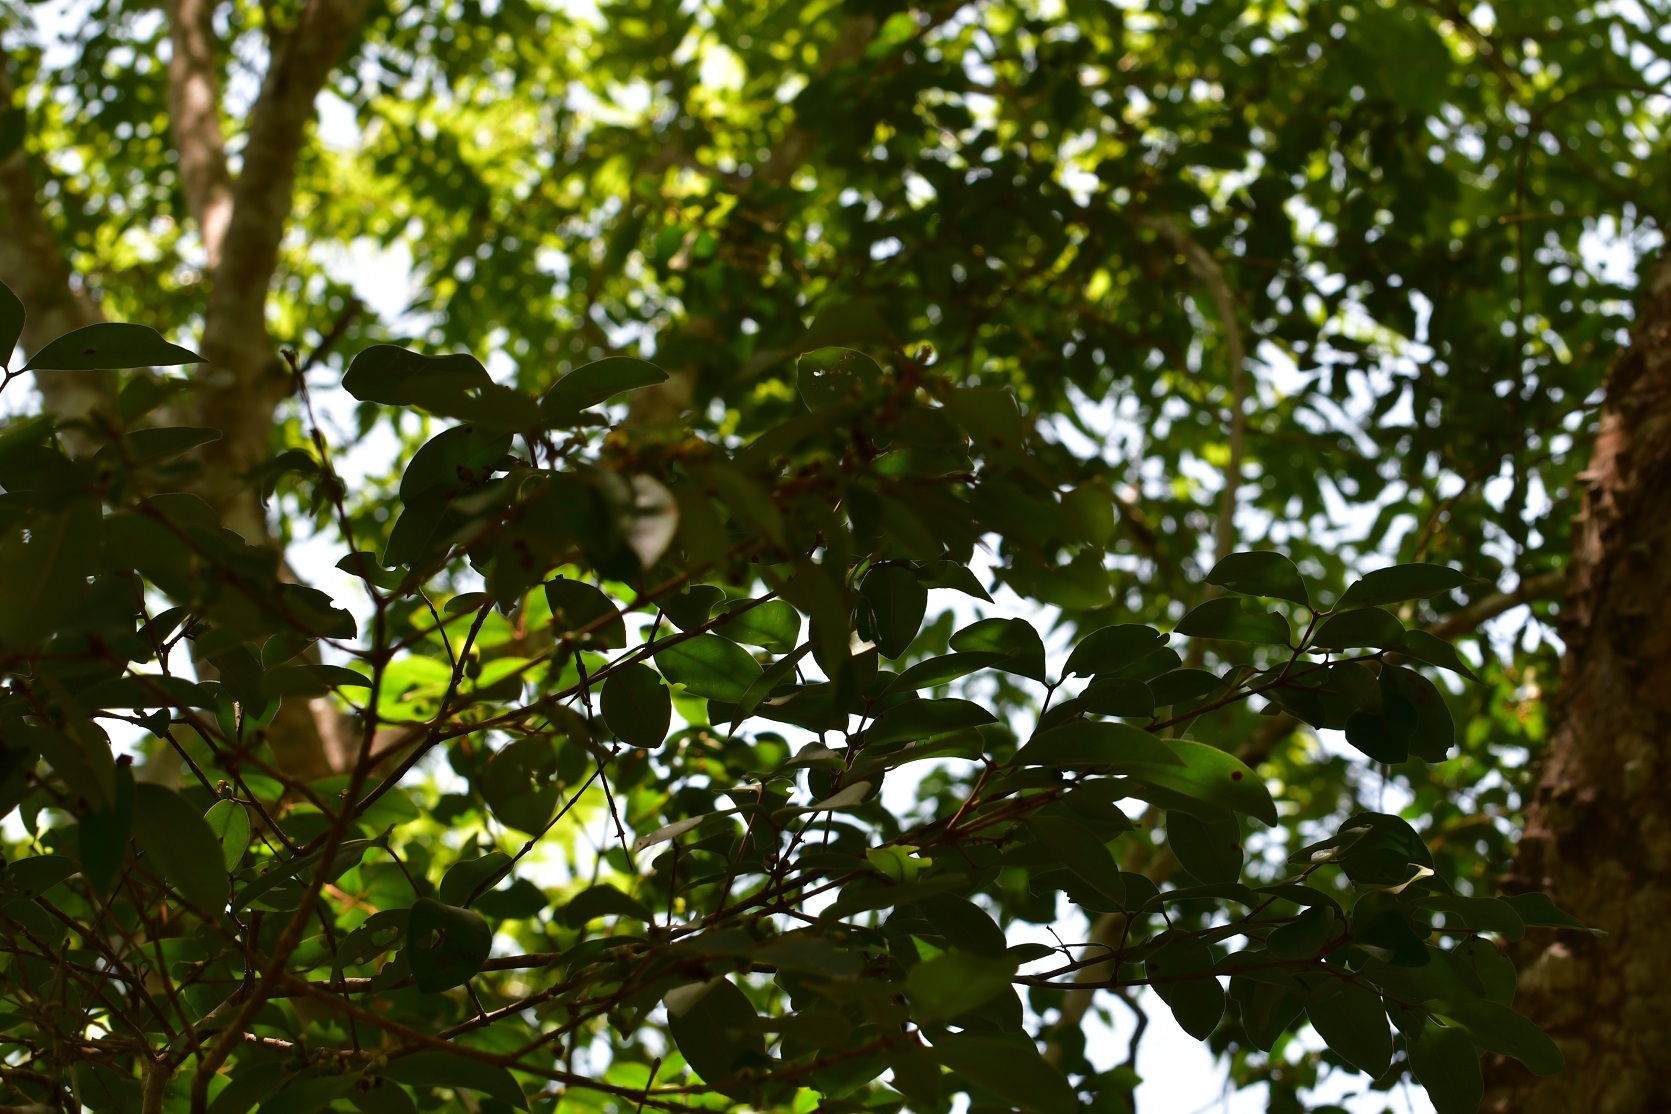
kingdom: Plantae
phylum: Tracheophyta
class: Magnoliopsida
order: Myrtales
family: Myrtaceae
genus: Eugenia
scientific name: Eugenia capulioides
